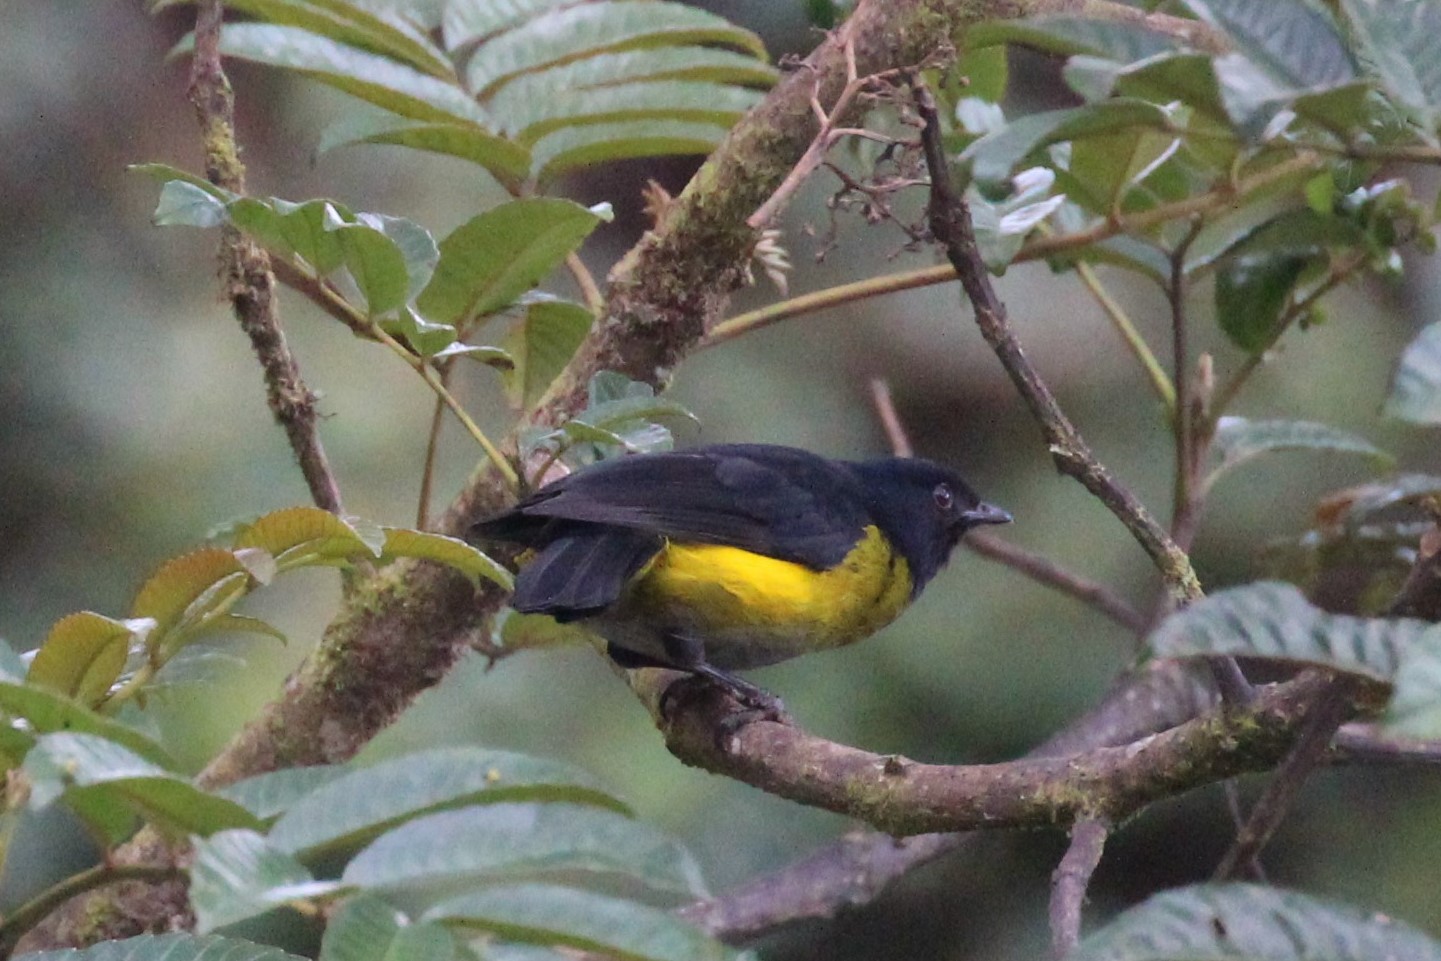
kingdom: Animalia
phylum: Chordata
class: Aves
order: Passeriformes
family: Ptilogonatidae
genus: Phainoptila
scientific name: Phainoptila melanoxantha
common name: Black-and-yellow phainoptila
